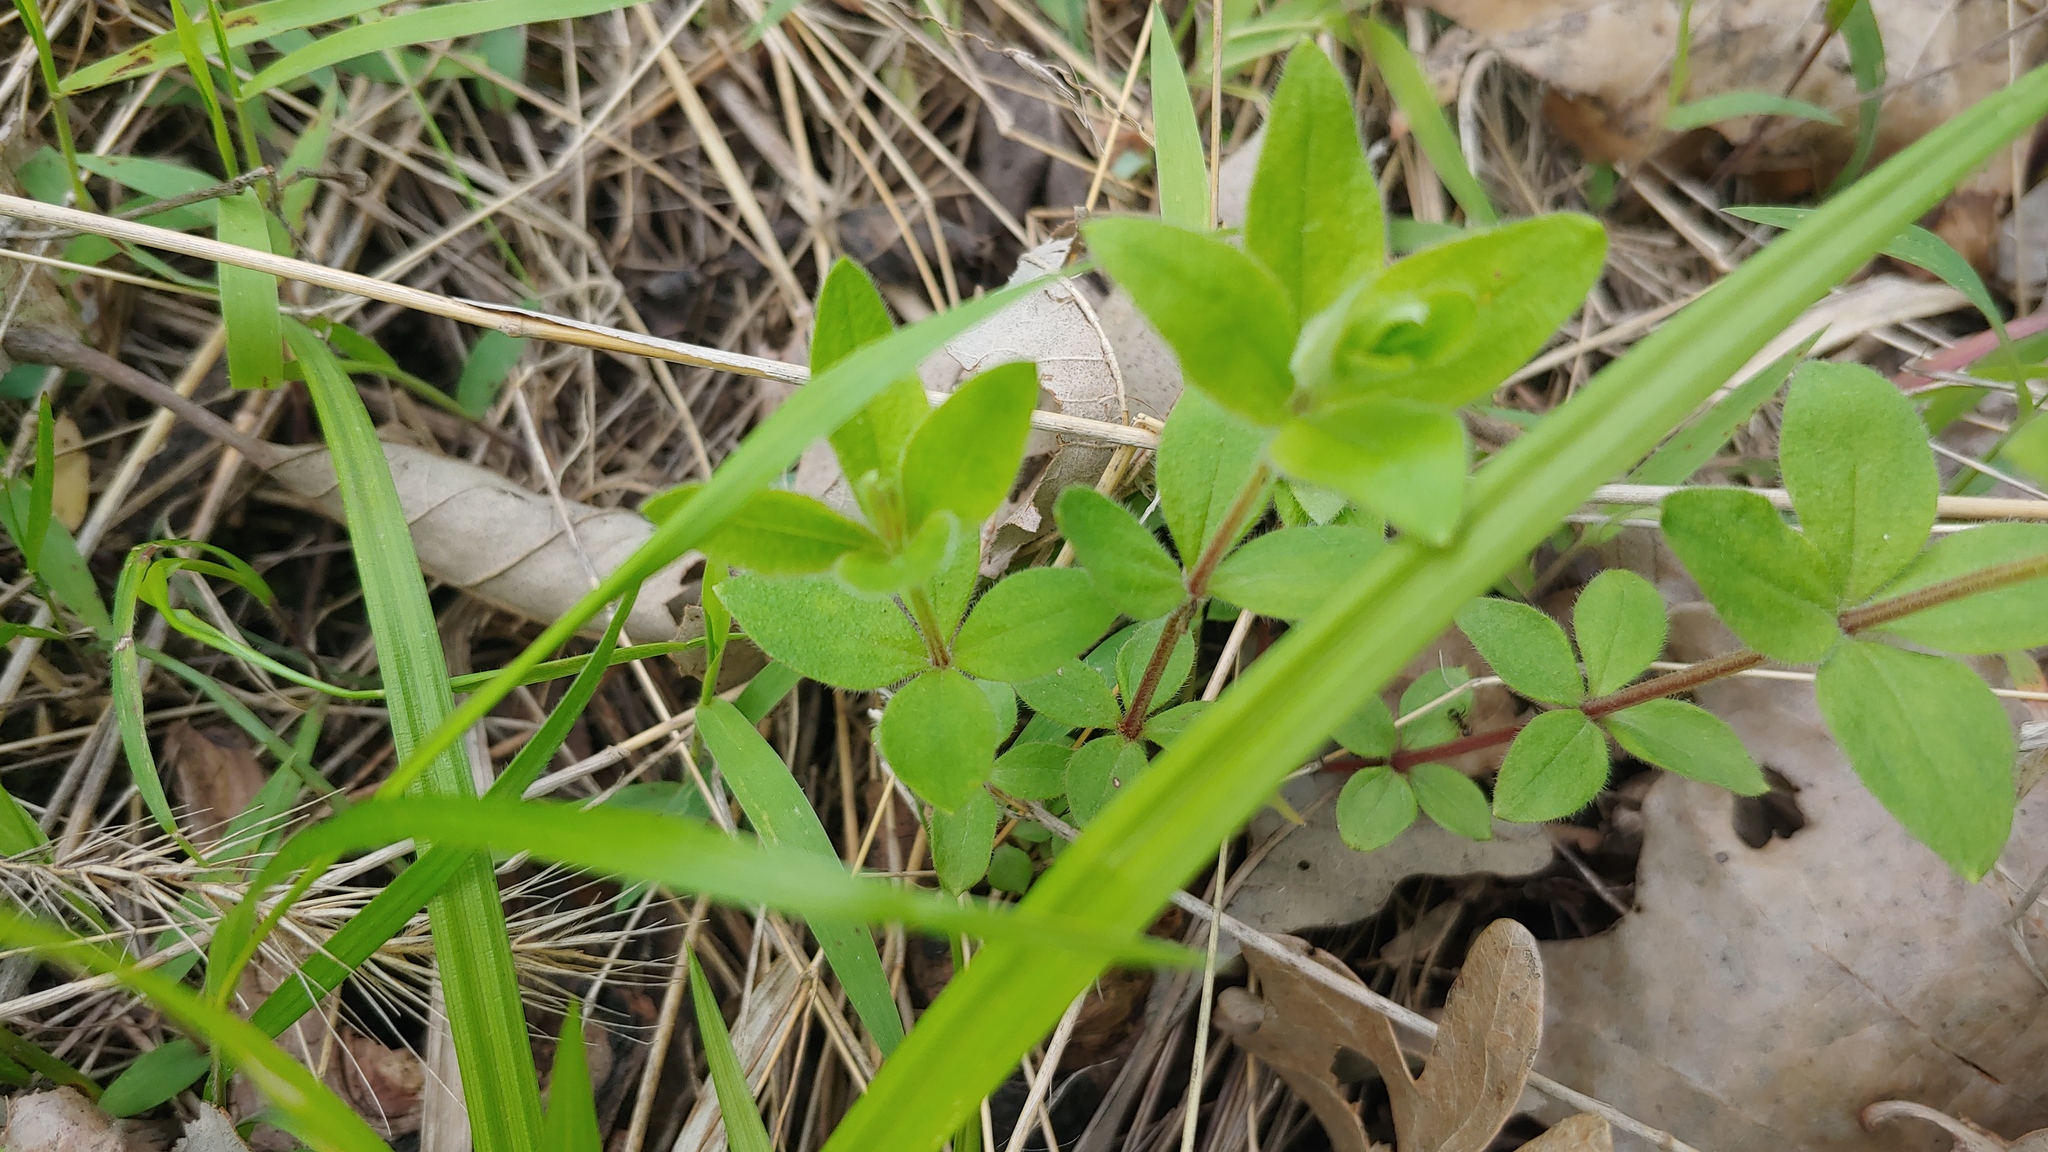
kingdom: Plantae
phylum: Tracheophyta
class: Magnoliopsida
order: Gentianales
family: Rubiaceae
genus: Galium
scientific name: Galium circaezans
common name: Forest bedstraw
